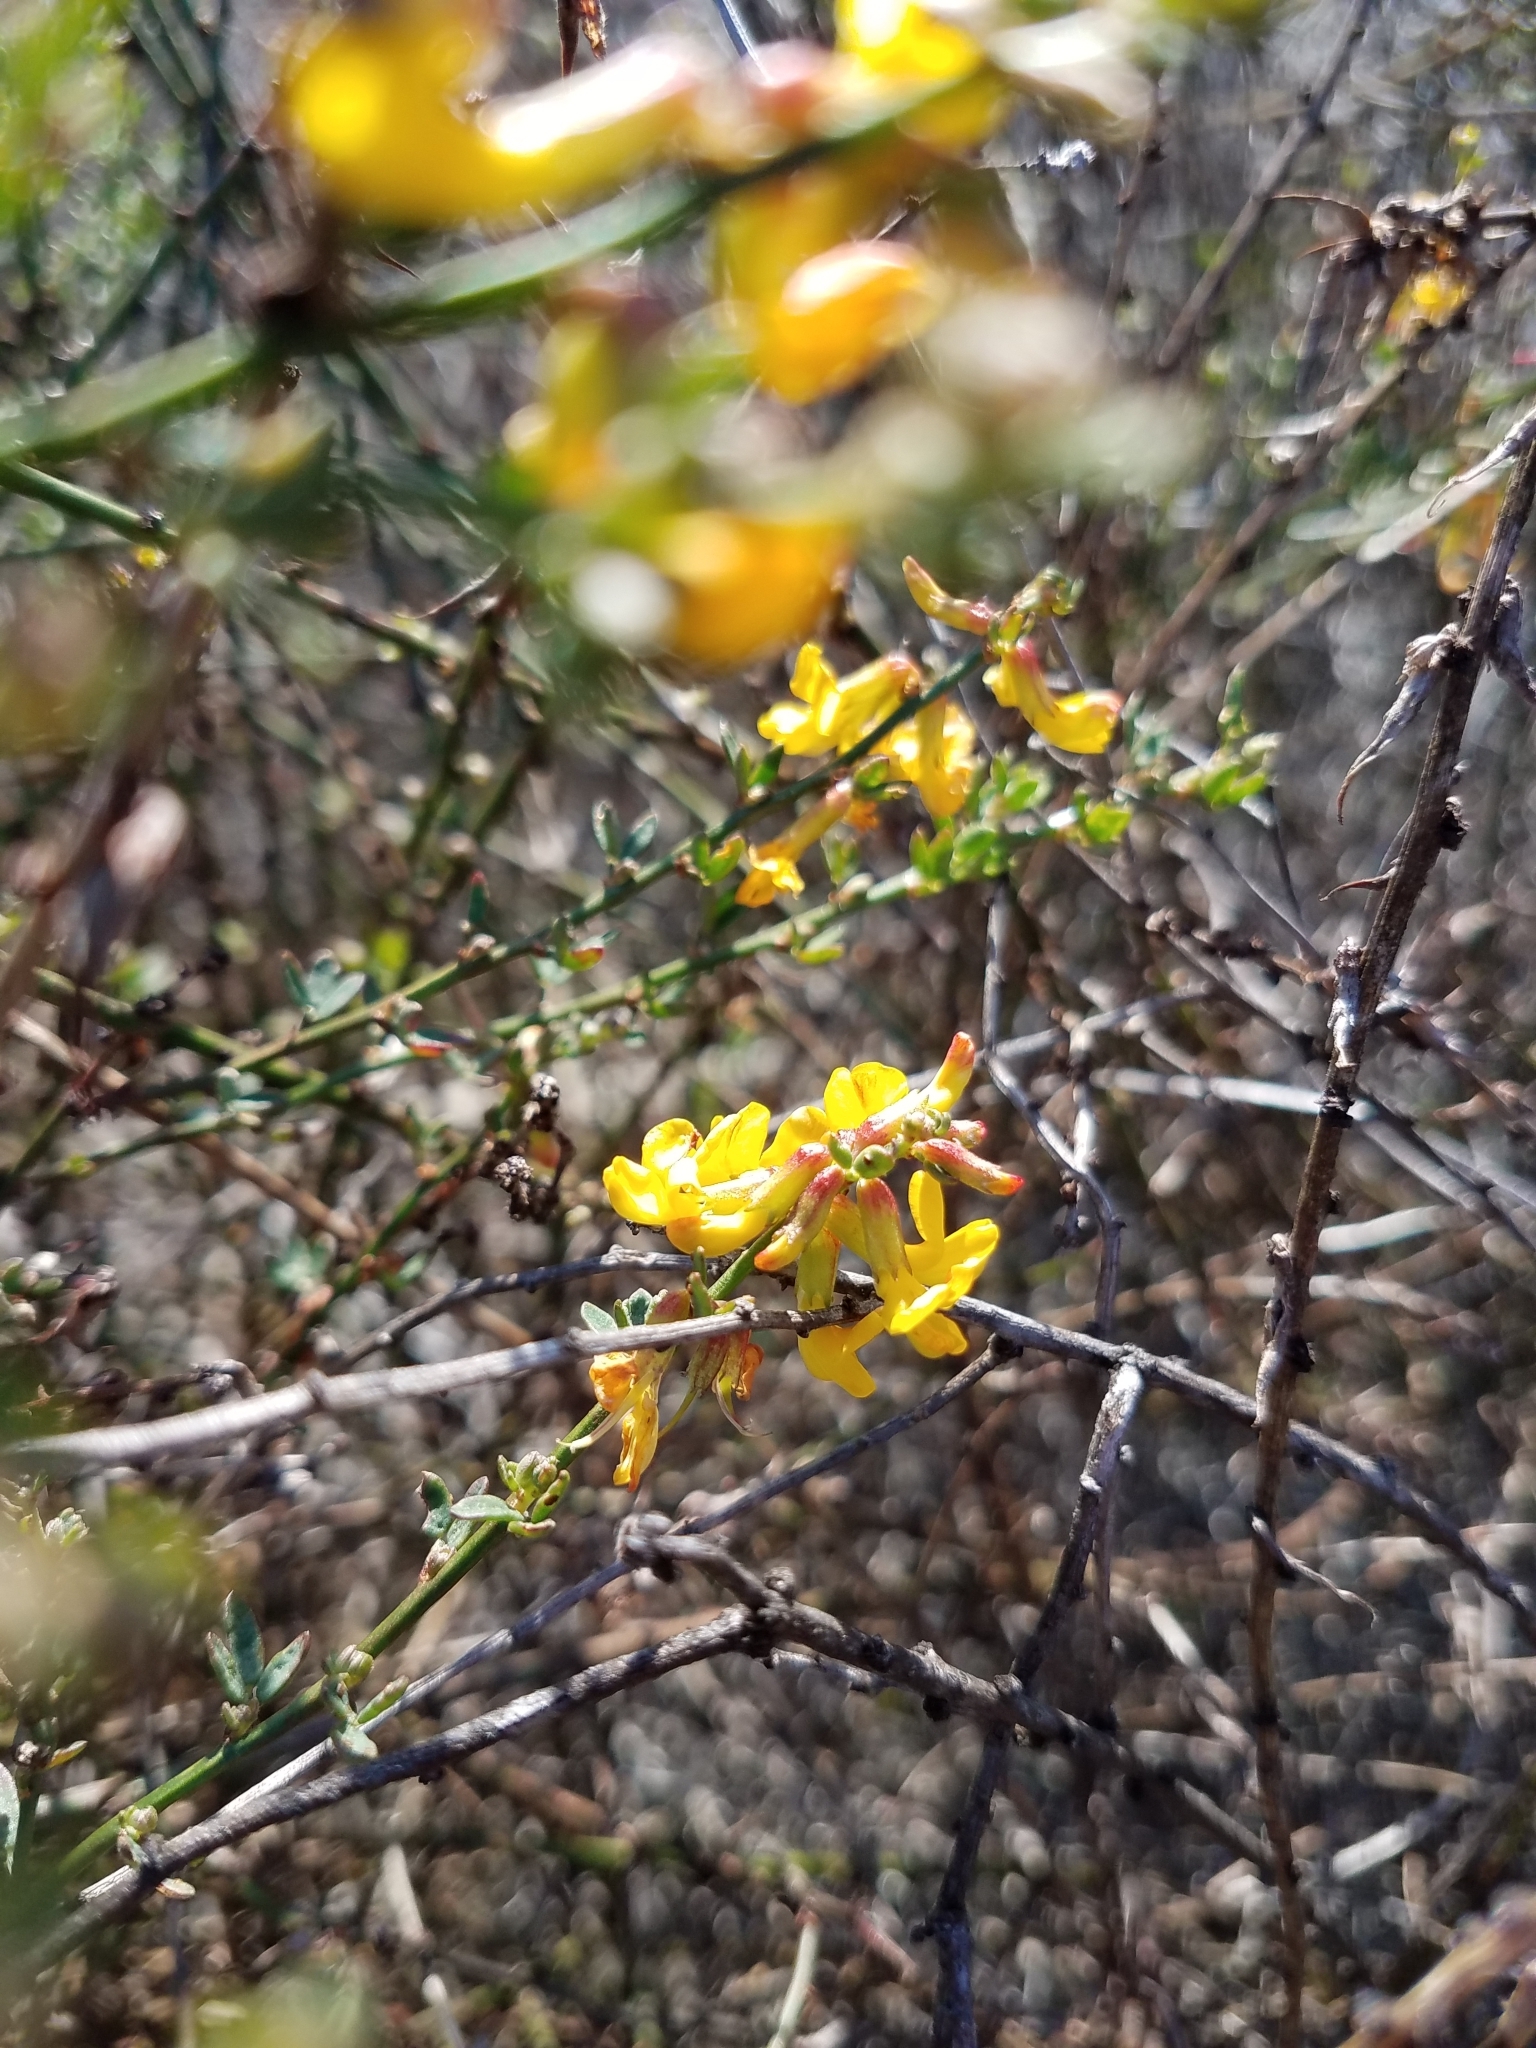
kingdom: Plantae
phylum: Tracheophyta
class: Magnoliopsida
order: Fabales
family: Fabaceae
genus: Acmispon
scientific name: Acmispon glaber
